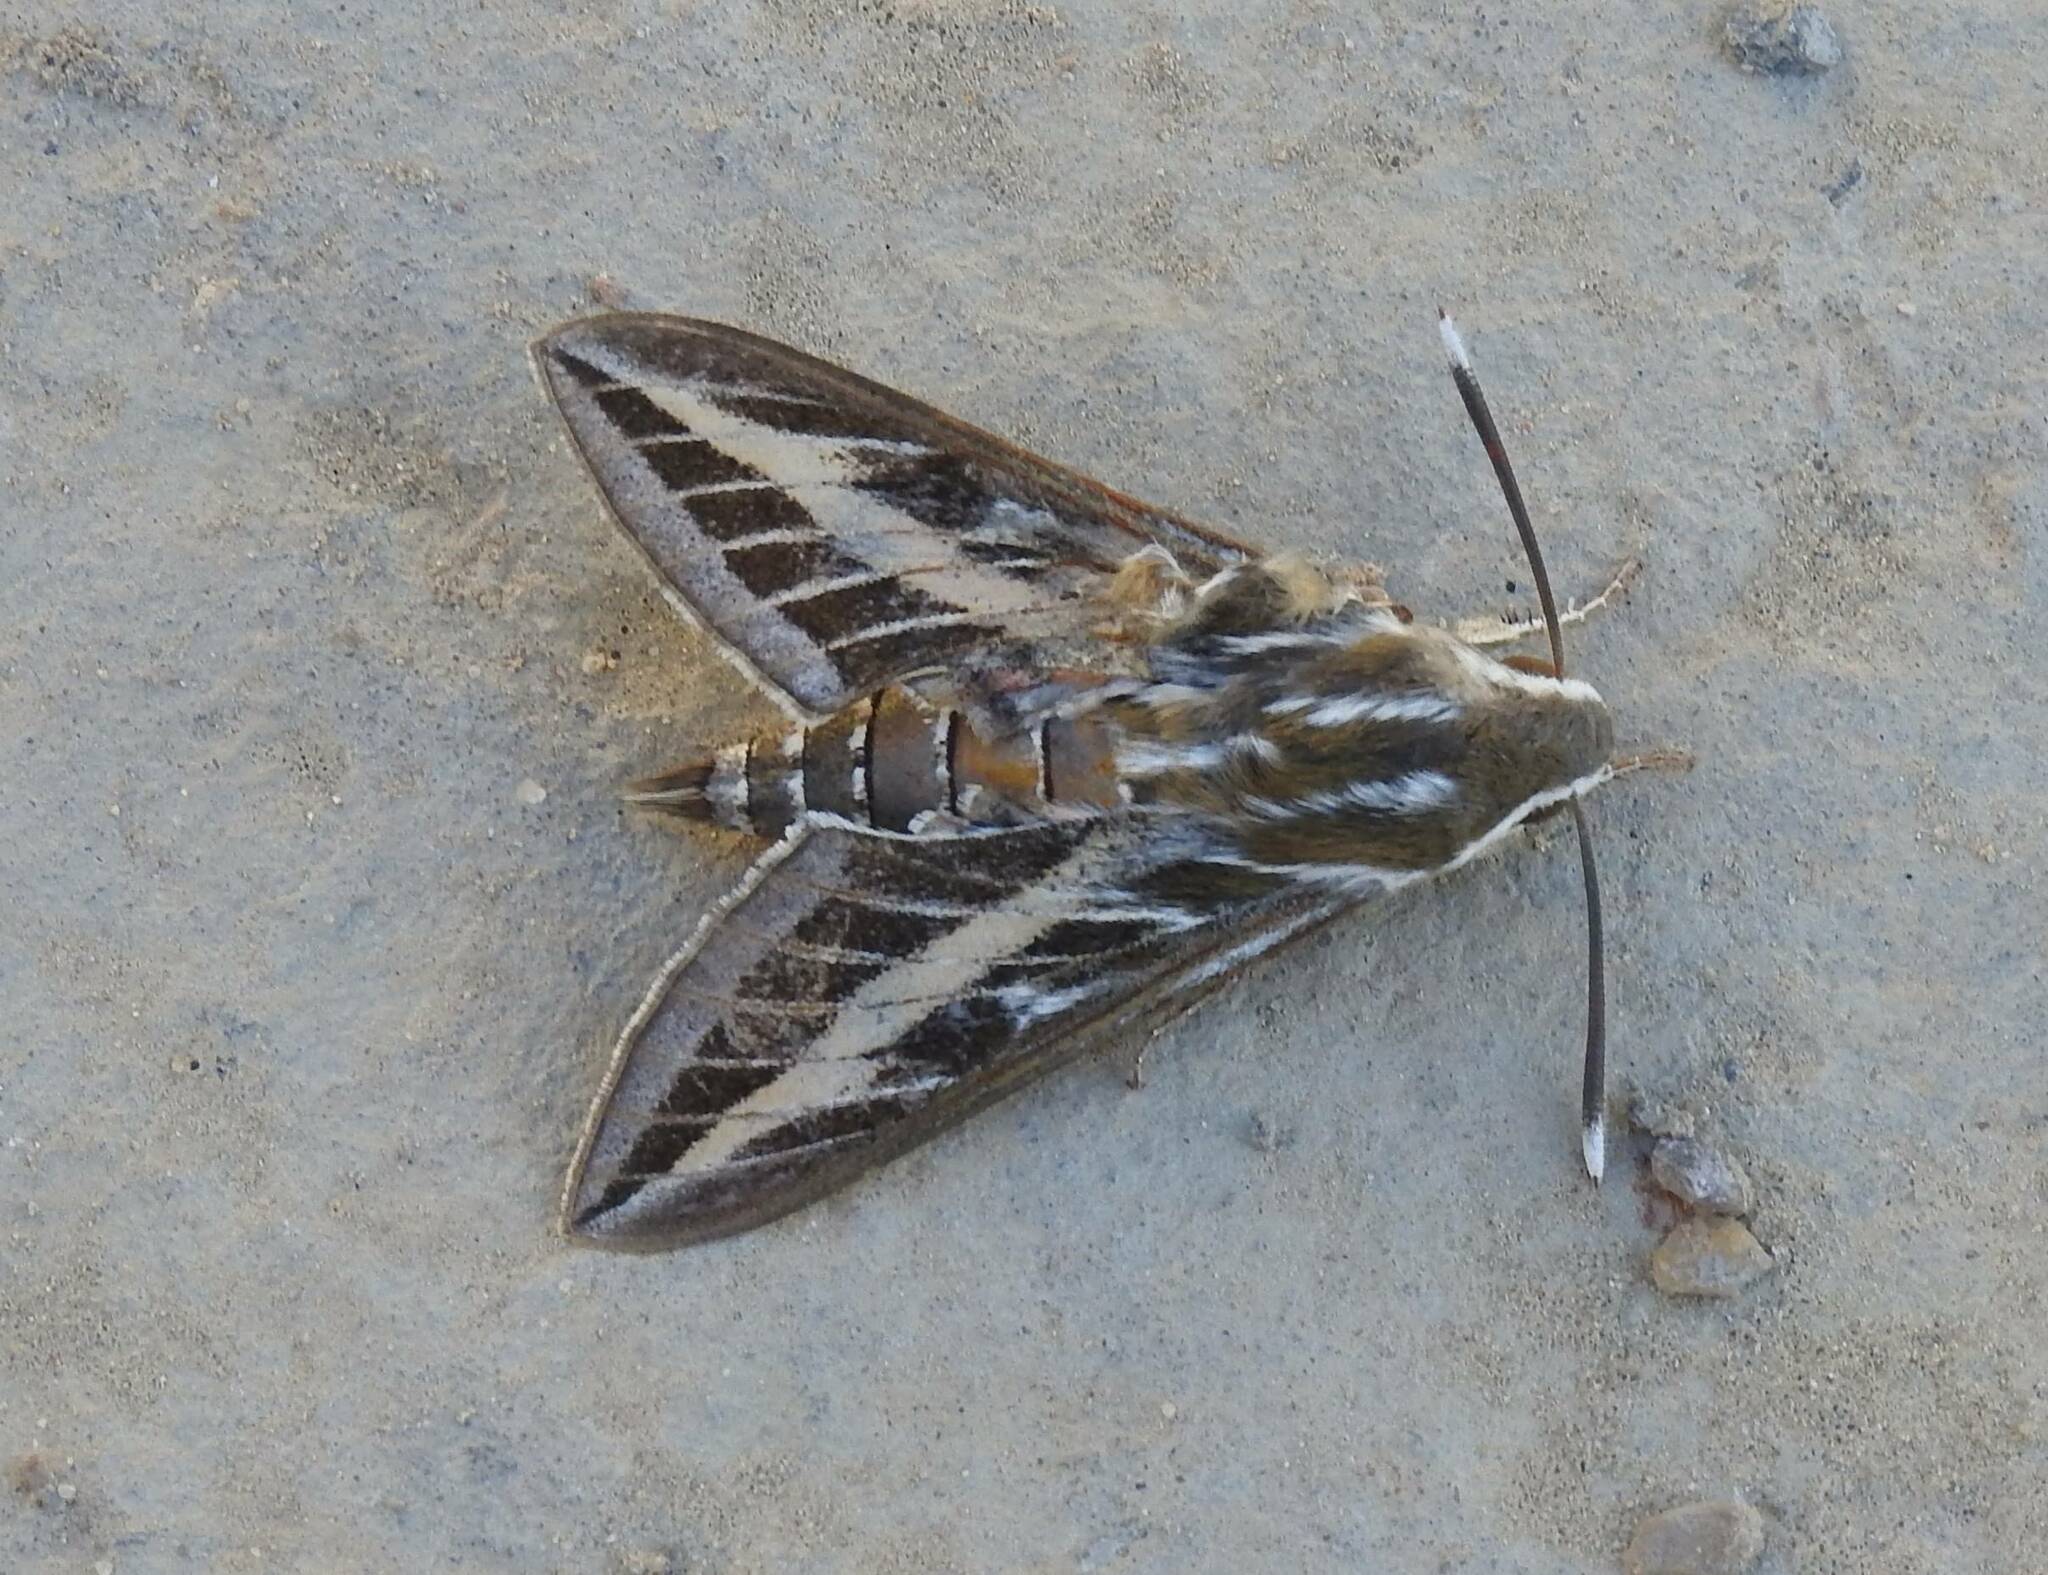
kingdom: Animalia
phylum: Arthropoda
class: Insecta
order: Lepidoptera
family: Sphingidae
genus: Hyles
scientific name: Hyles livornica
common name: Striped hawk-moth
